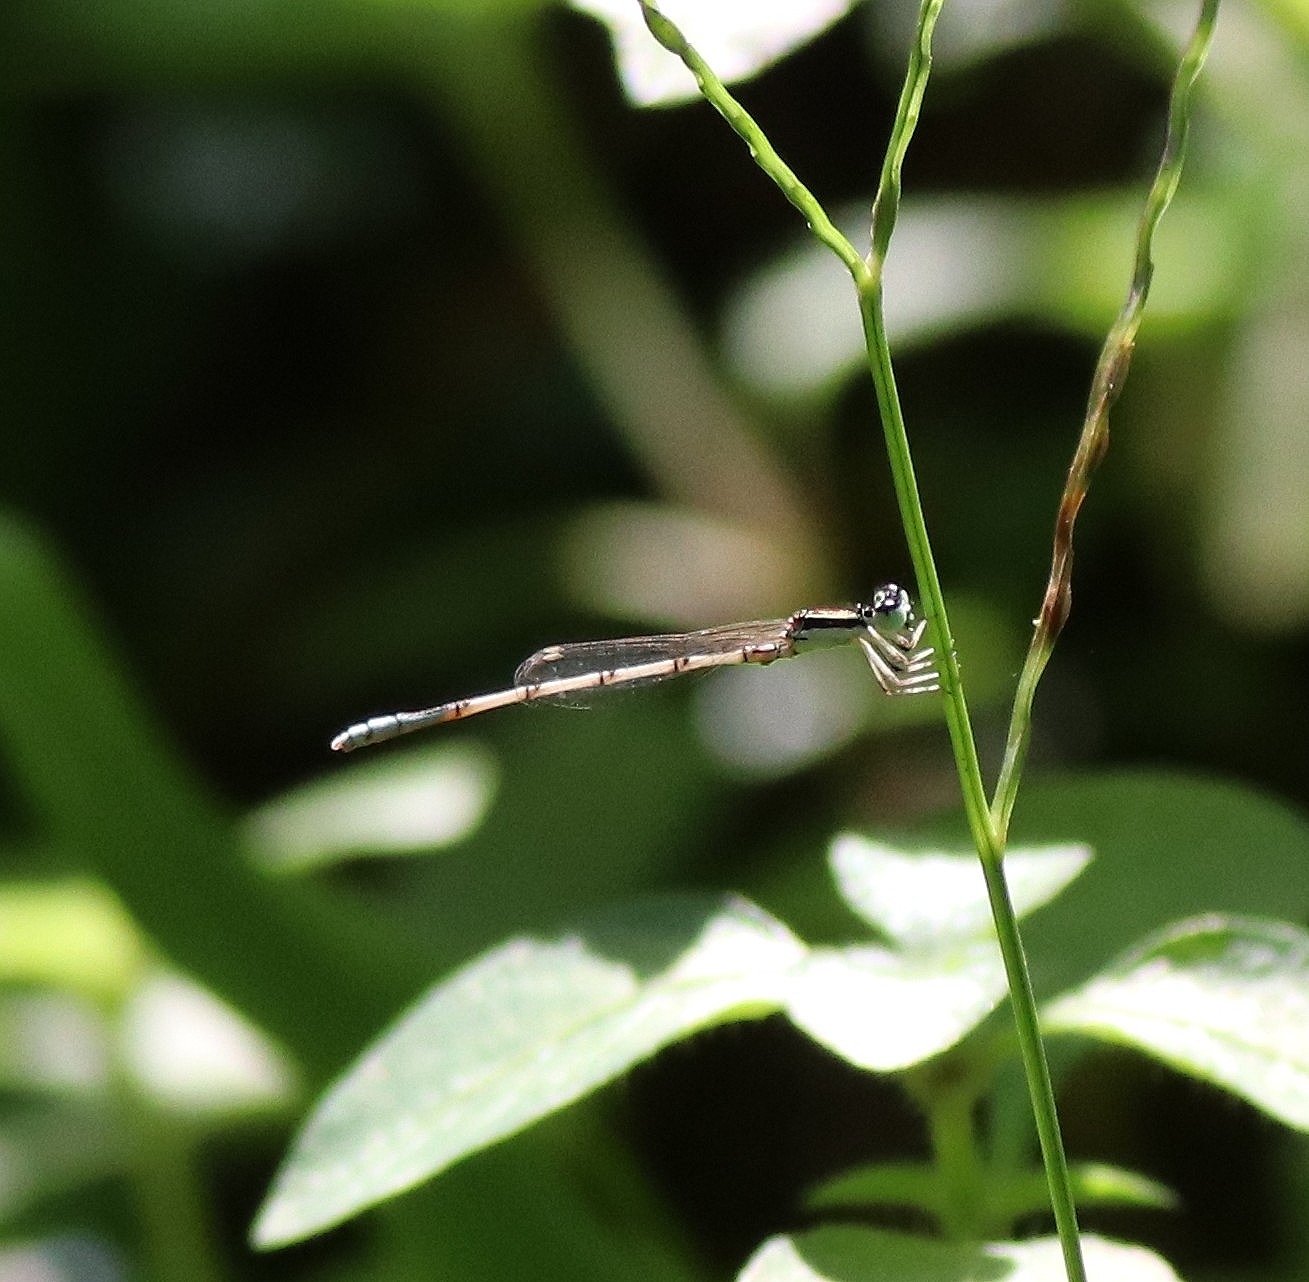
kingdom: Animalia
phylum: Arthropoda
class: Insecta
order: Odonata
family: Coenagrionidae
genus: Agriocnemis
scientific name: Agriocnemis pieris
